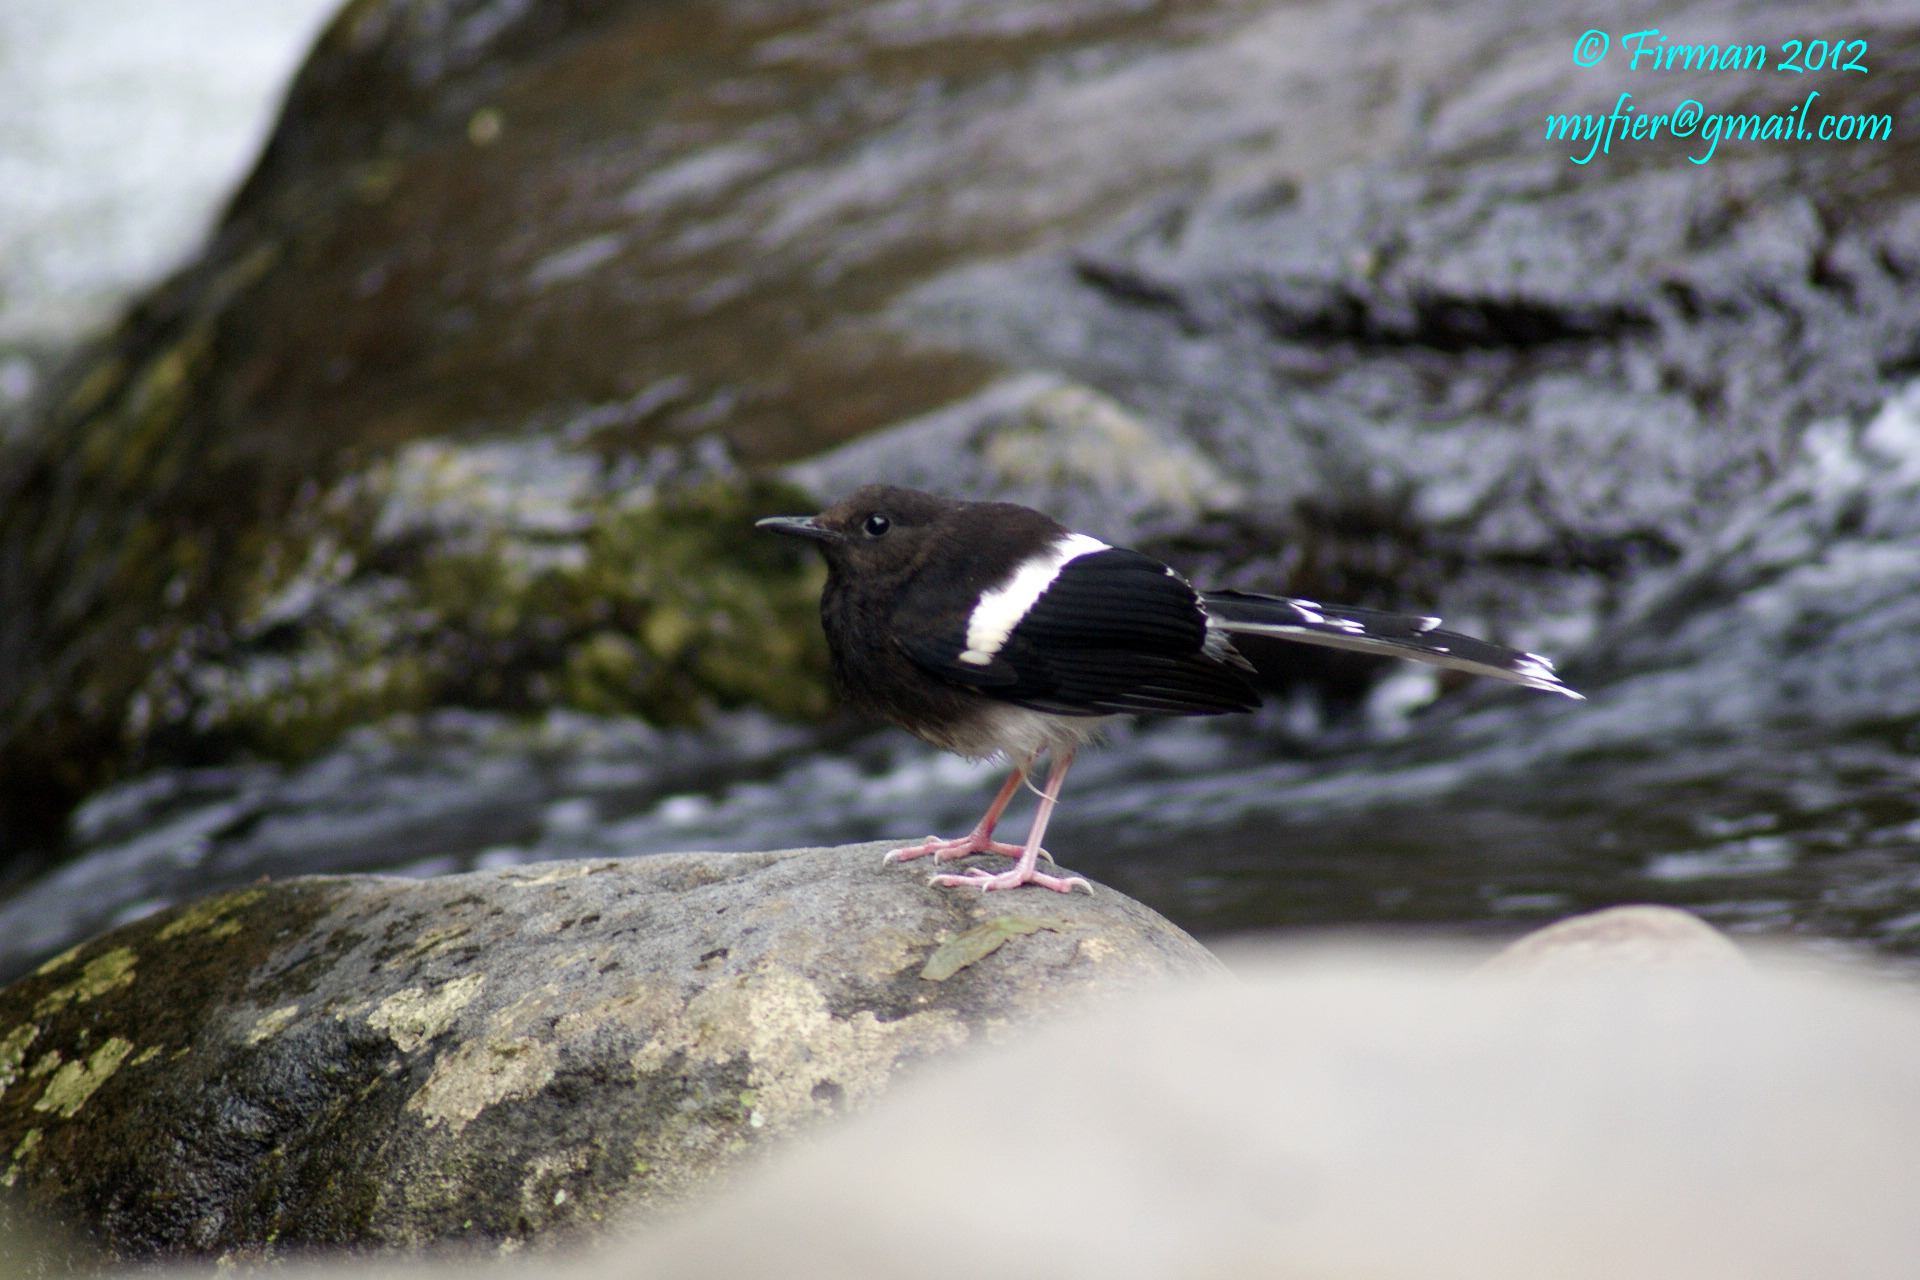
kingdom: Animalia
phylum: Chordata
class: Aves
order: Passeriformes
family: Muscicapidae
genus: Enicurus
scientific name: Enicurus leschenaulti
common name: White-crowned forktail
